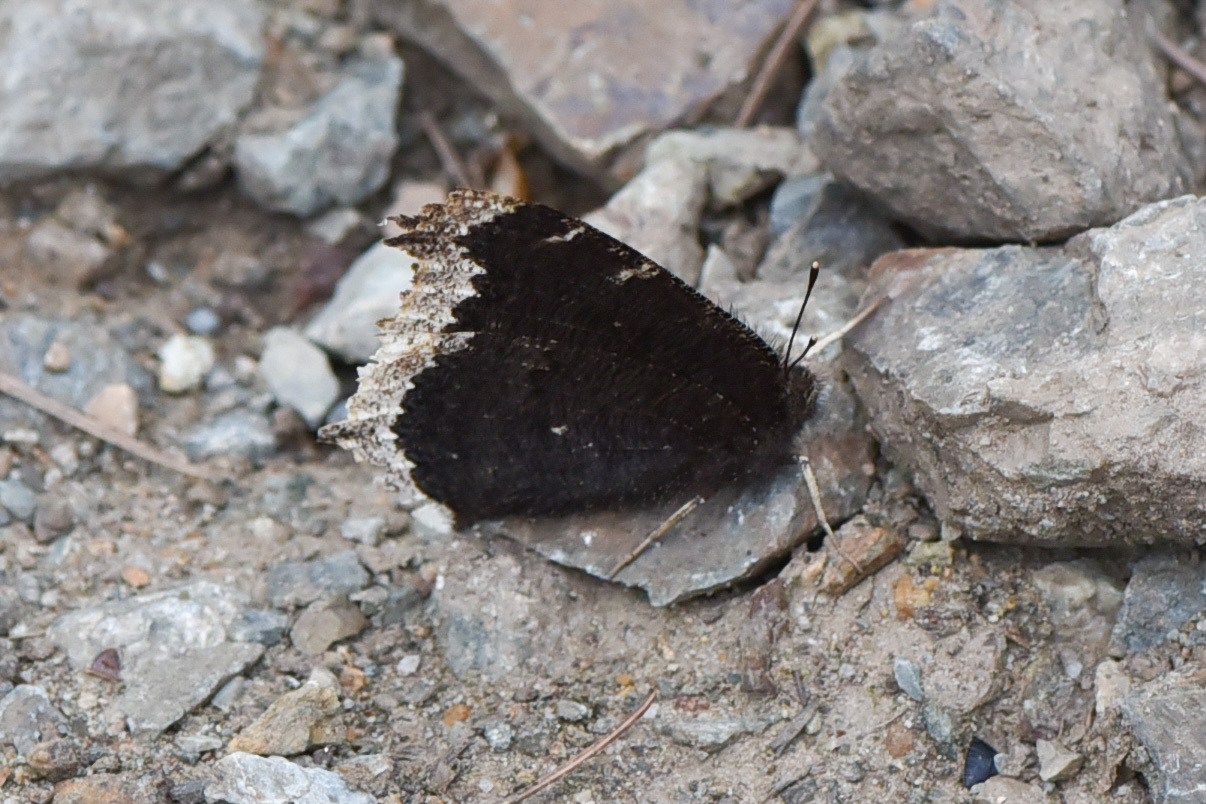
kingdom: Animalia
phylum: Arthropoda
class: Insecta
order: Lepidoptera
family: Nymphalidae
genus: Nymphalis
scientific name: Nymphalis antiopa
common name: Camberwell beauty
